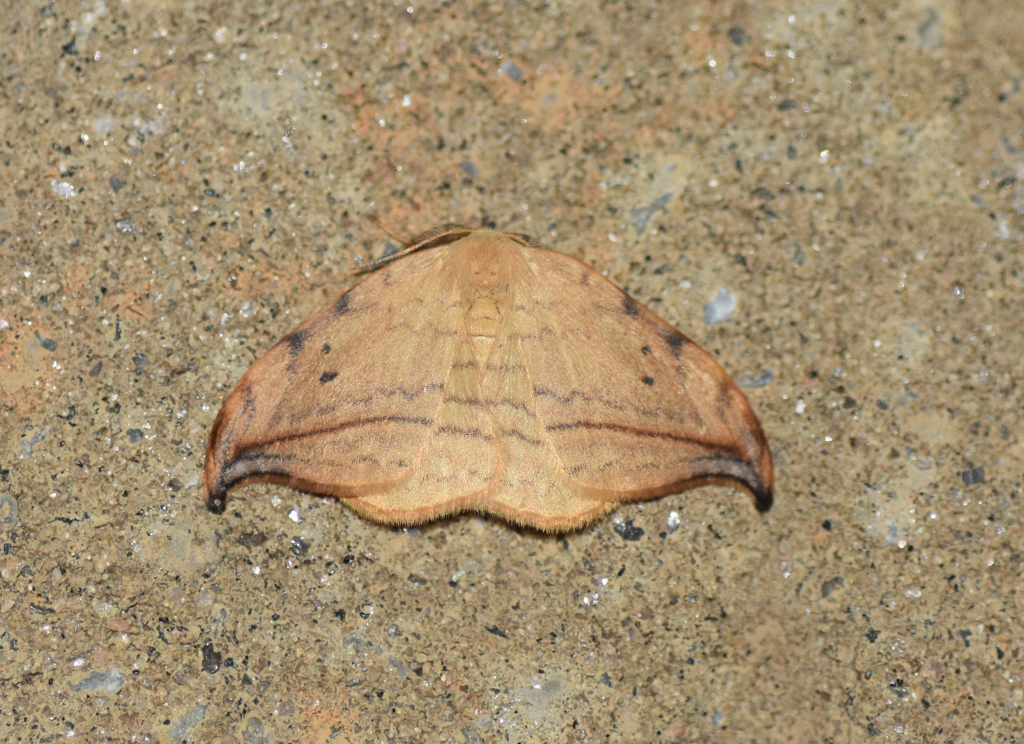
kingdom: Animalia
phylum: Arthropoda
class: Insecta
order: Lepidoptera
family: Drepanidae
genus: Drepana
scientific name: Drepana arcuata
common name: Arched hooktip moth
